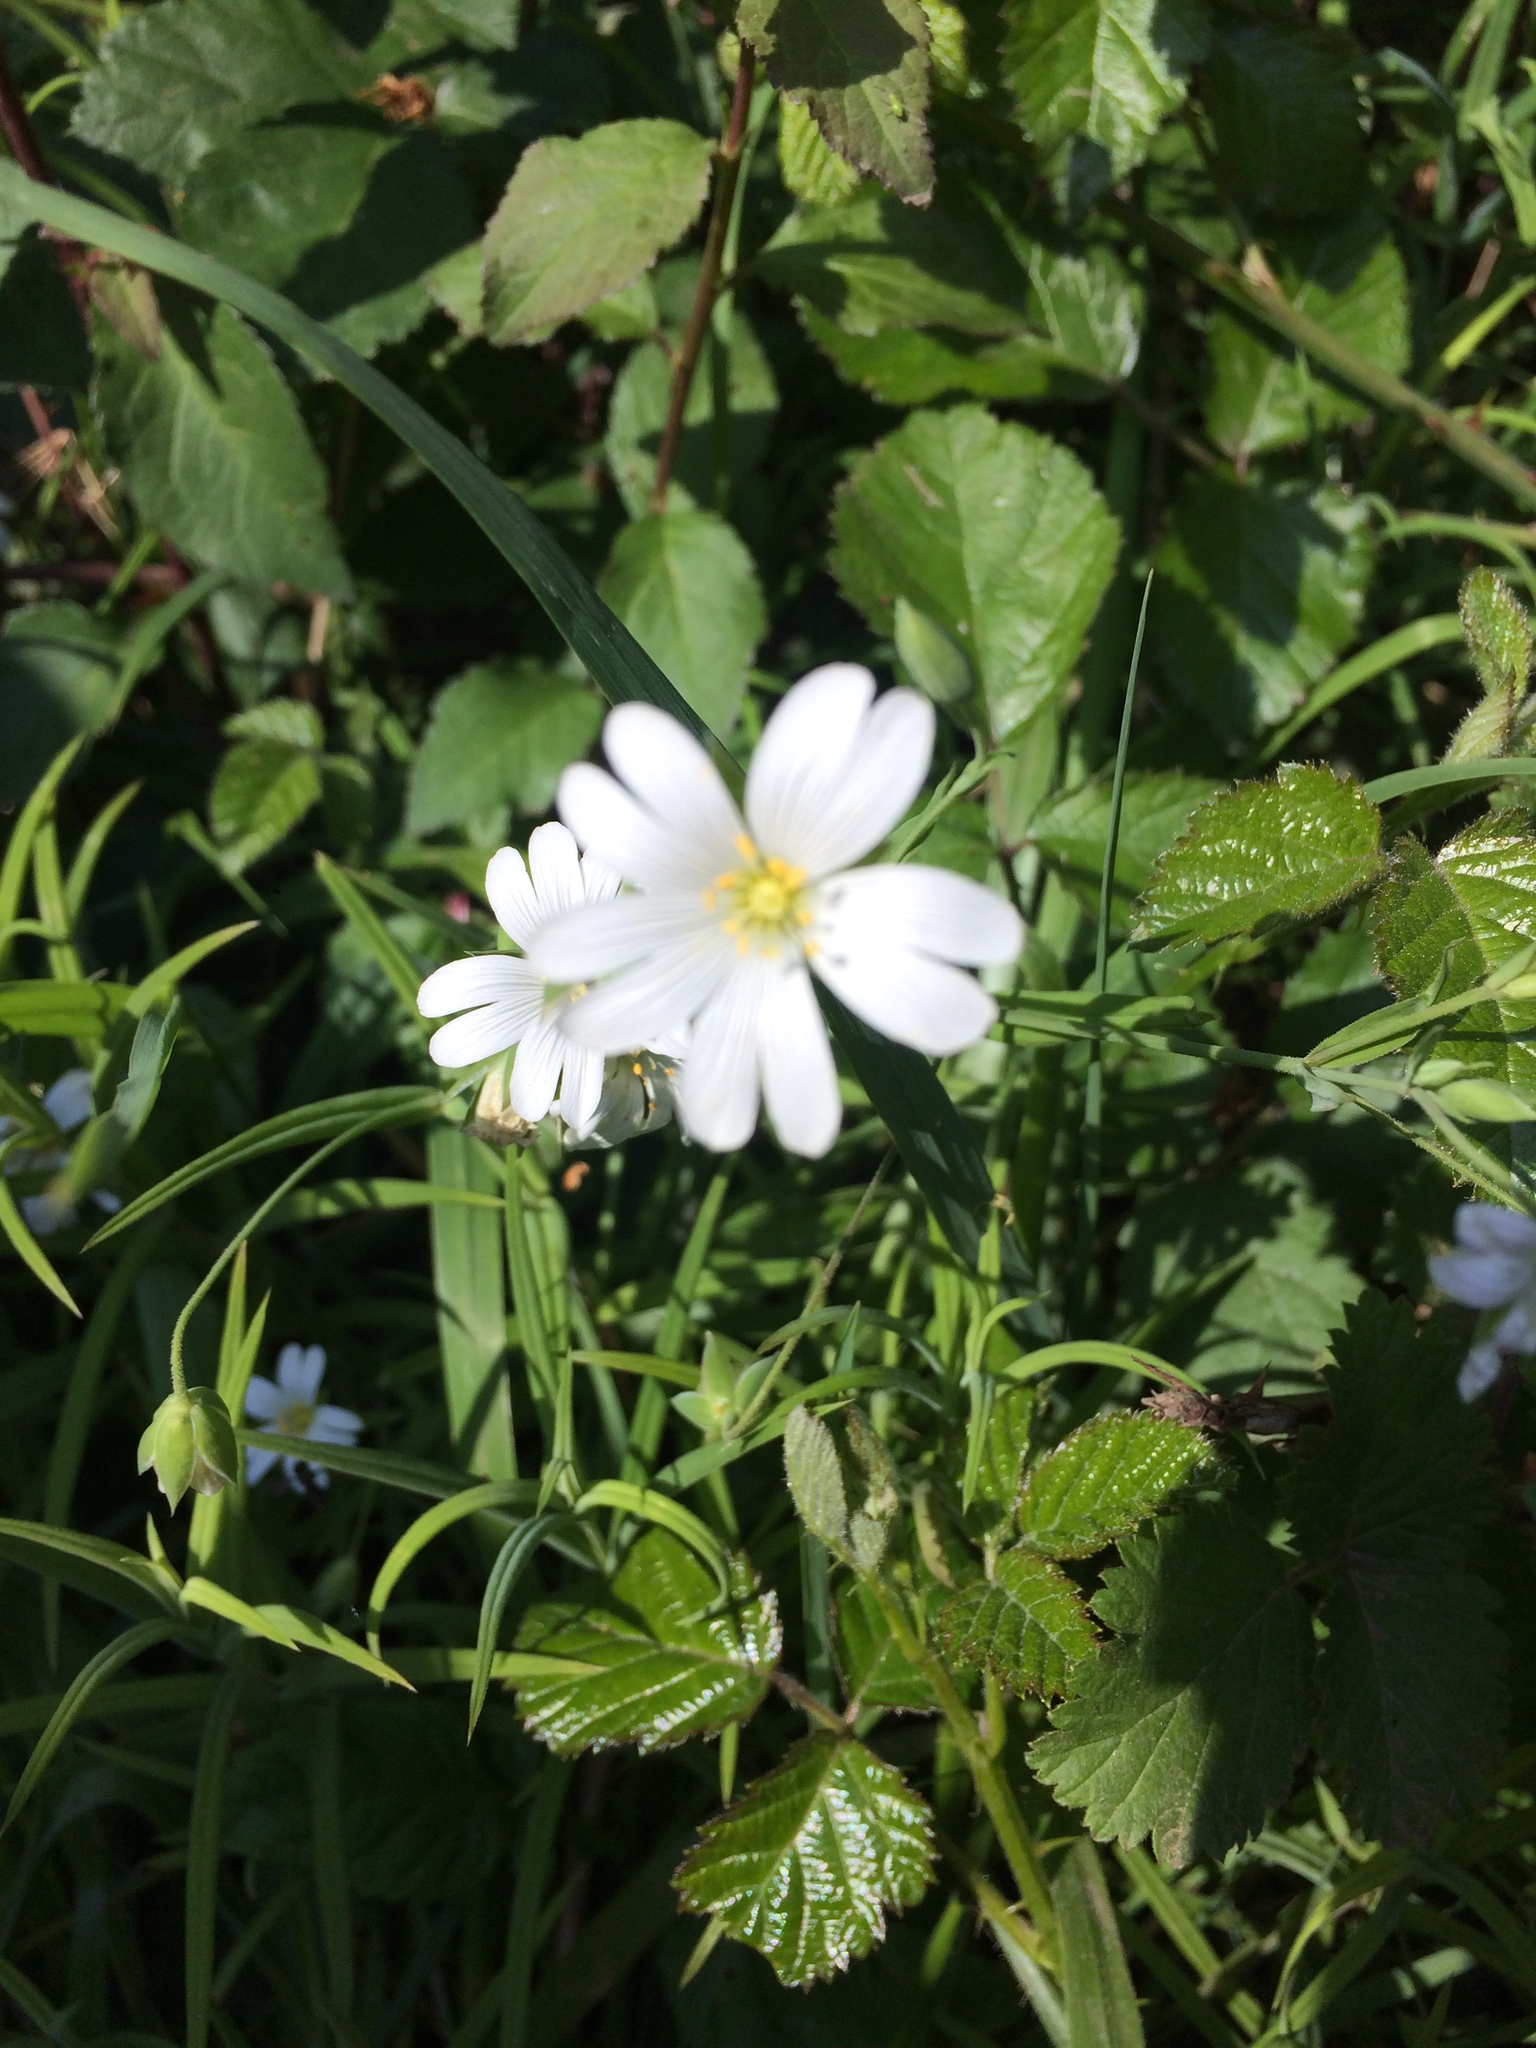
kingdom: Plantae
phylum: Tracheophyta
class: Magnoliopsida
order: Caryophyllales
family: Caryophyllaceae
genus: Rabelera
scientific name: Rabelera holostea
